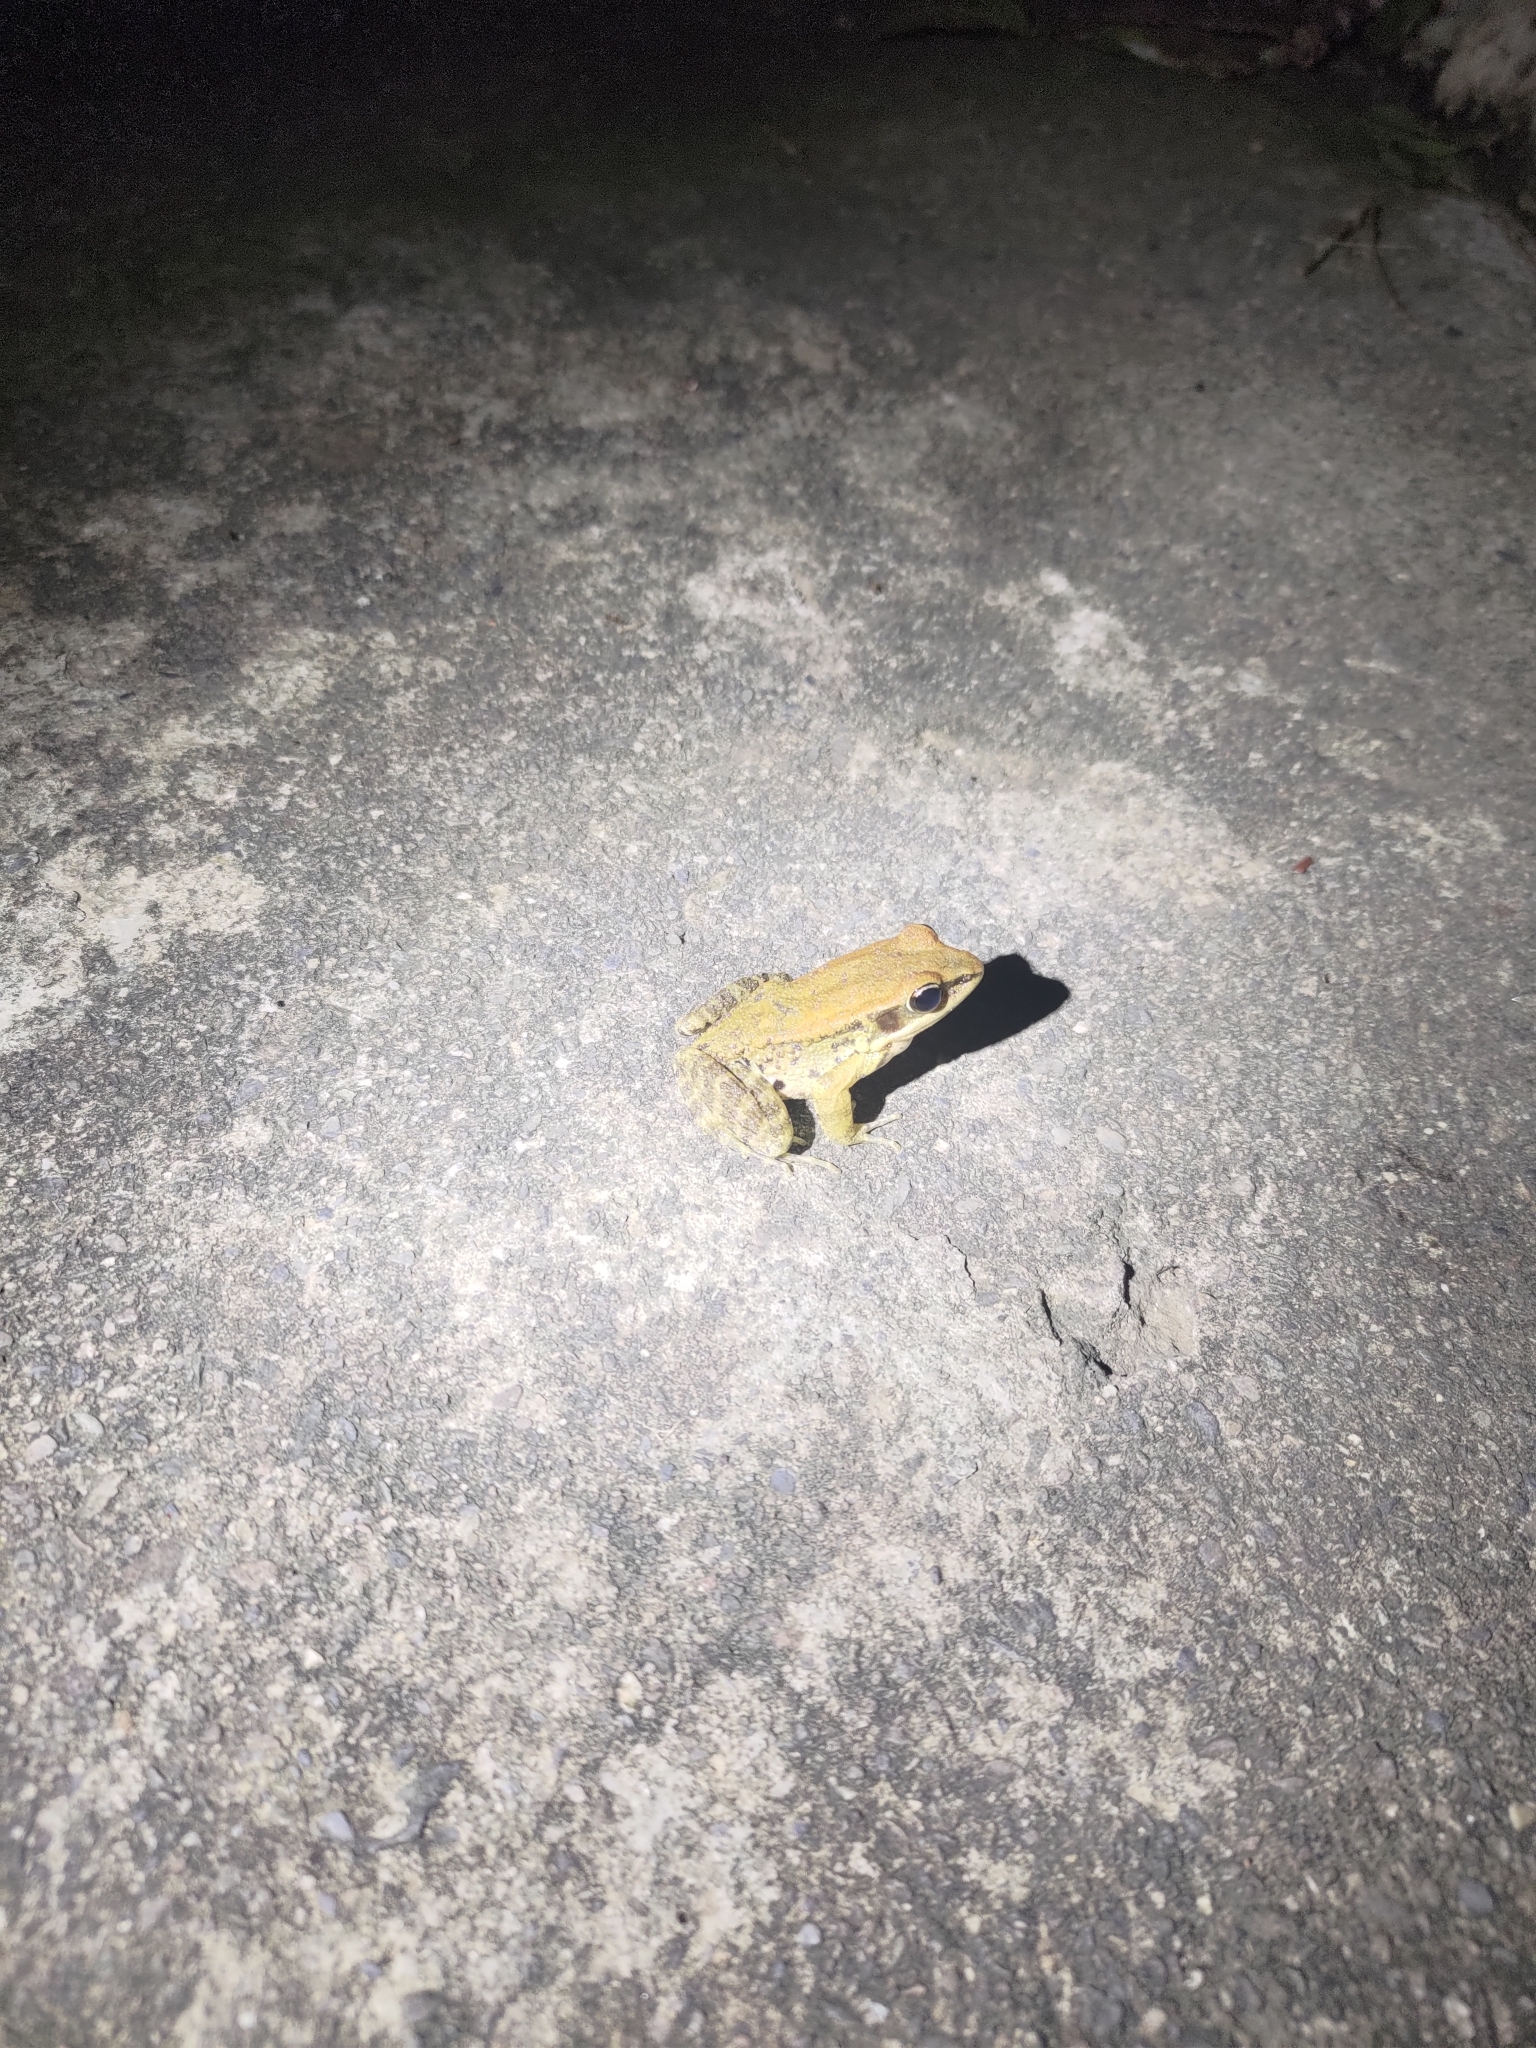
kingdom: Animalia
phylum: Chordata
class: Amphibia
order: Anura
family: Ranidae
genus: Hylarana
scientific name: Hylarana latouchii
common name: Broad-folded frog
